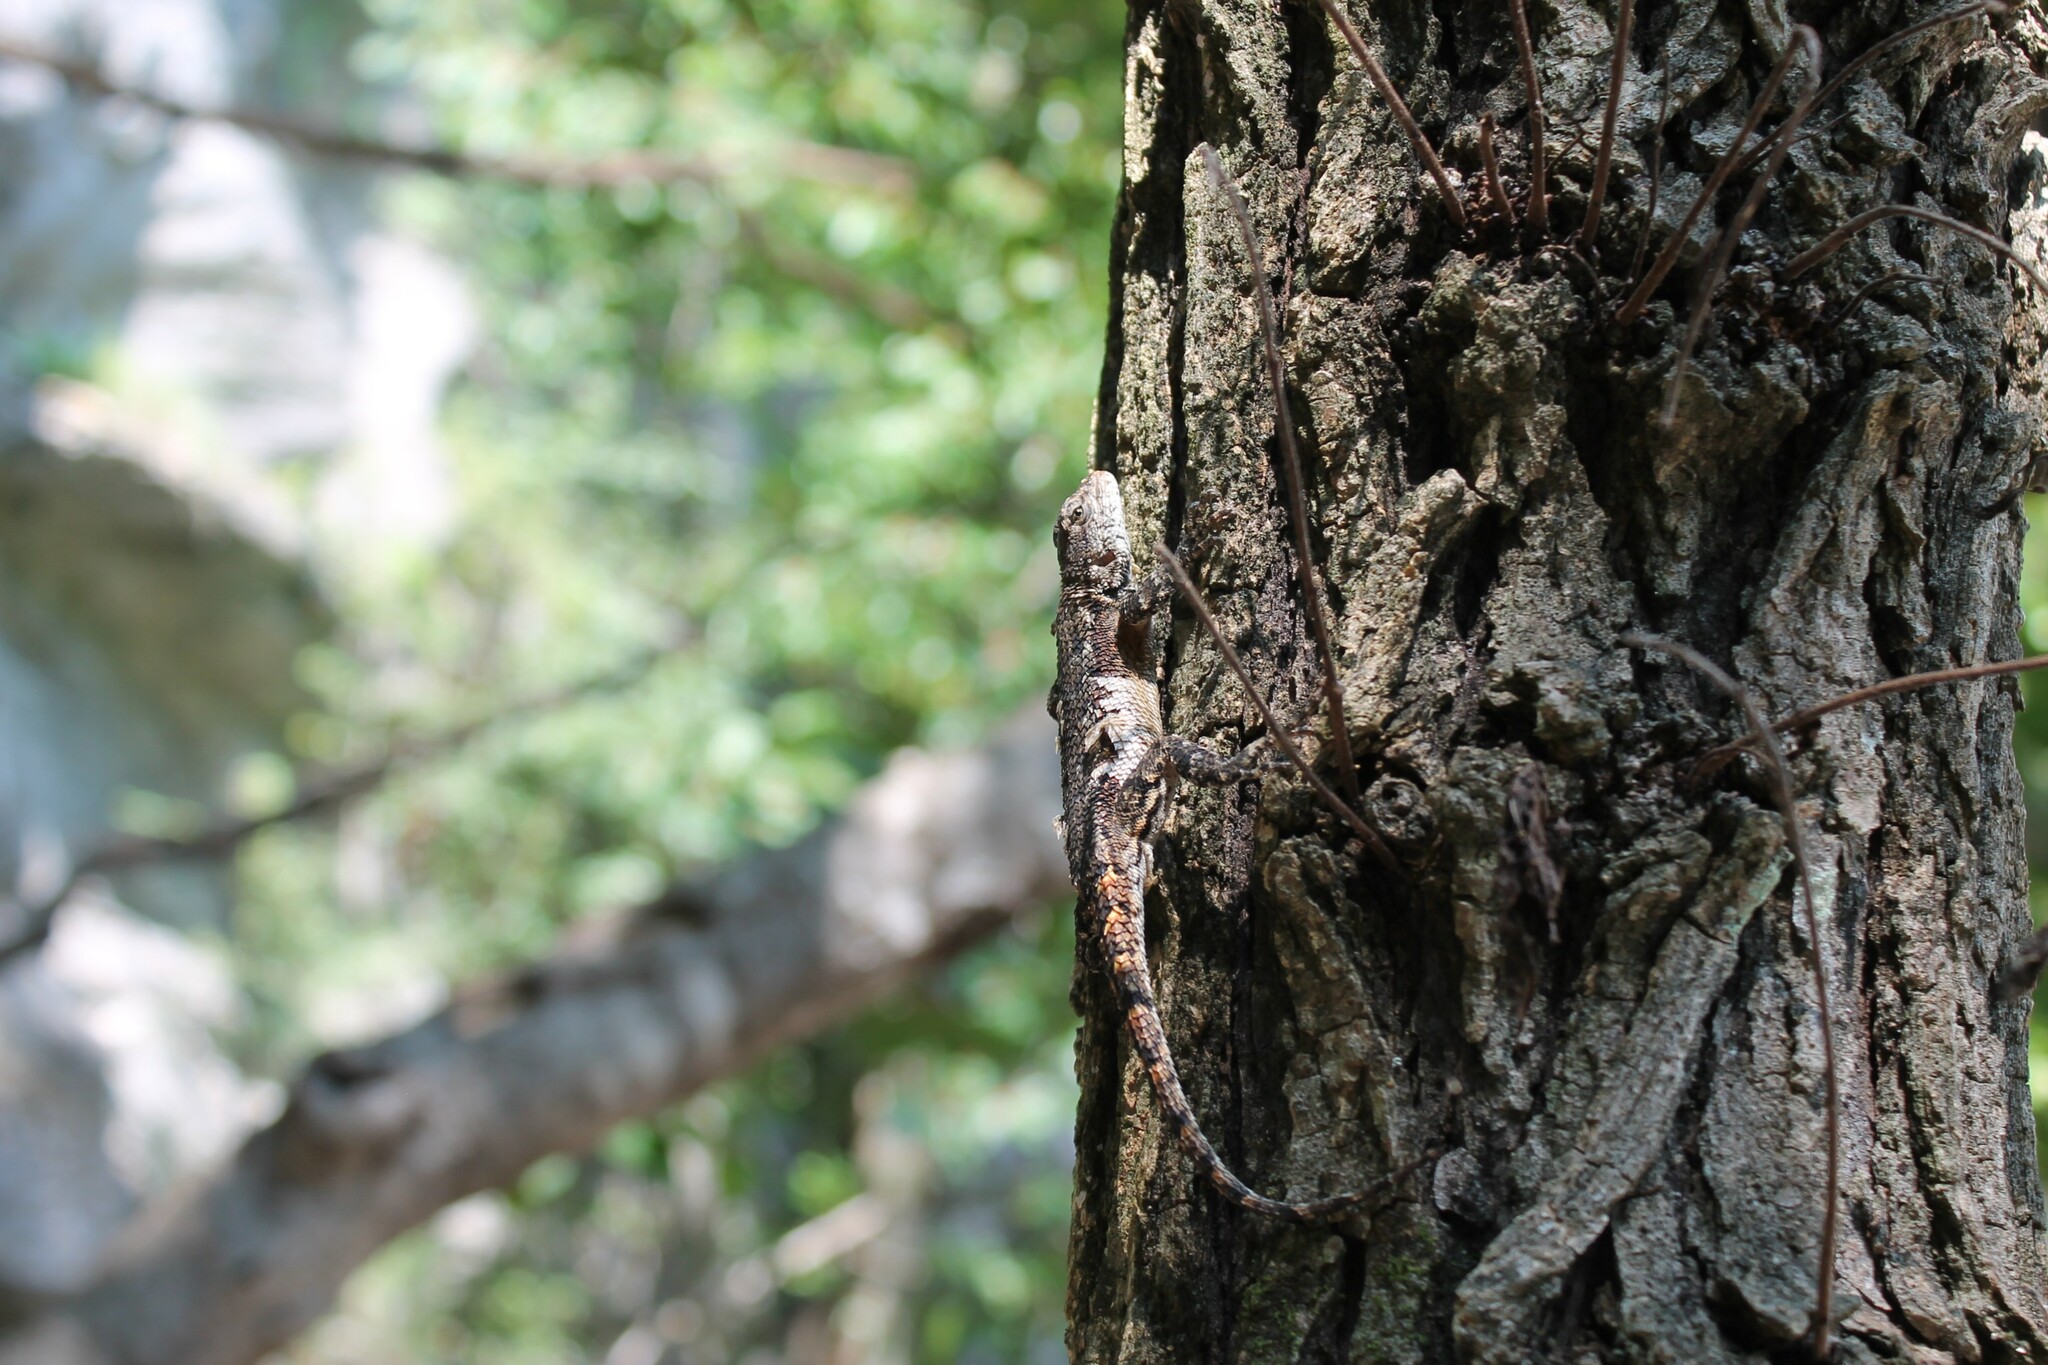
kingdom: Animalia
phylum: Chordata
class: Squamata
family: Phrynosomatidae
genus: Sceloporus
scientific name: Sceloporus undulatus
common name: Eastern fence lizard
